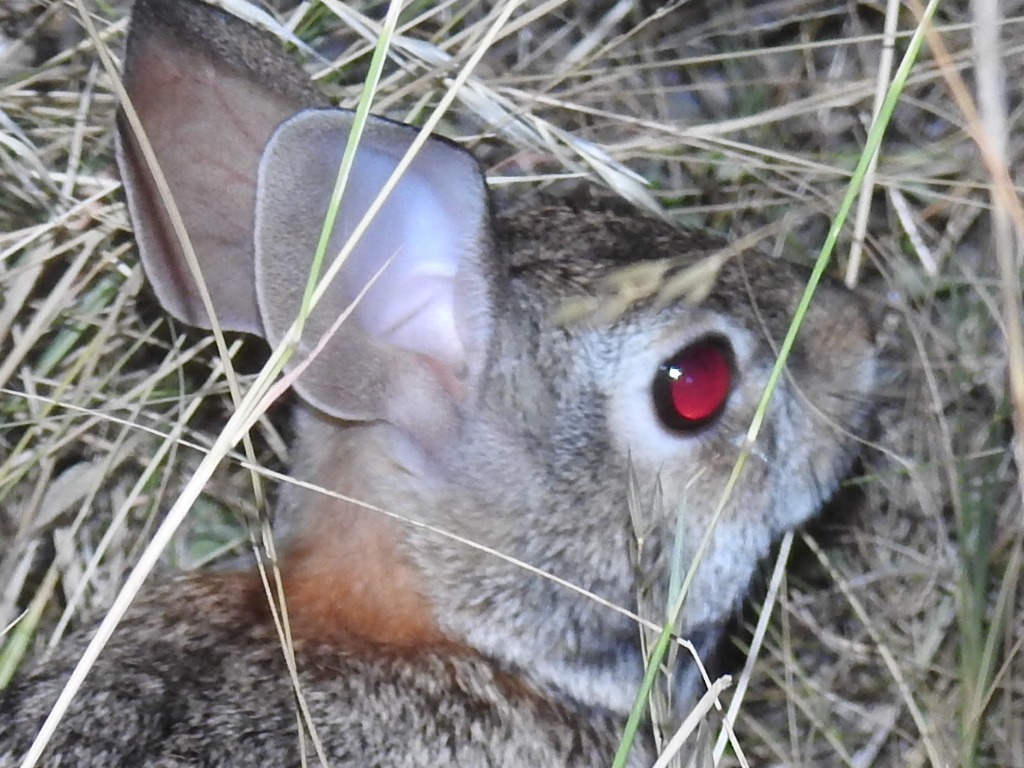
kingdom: Animalia
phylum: Chordata
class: Mammalia
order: Lagomorpha
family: Leporidae
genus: Sylvilagus
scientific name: Sylvilagus floridanus
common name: Eastern cottontail
